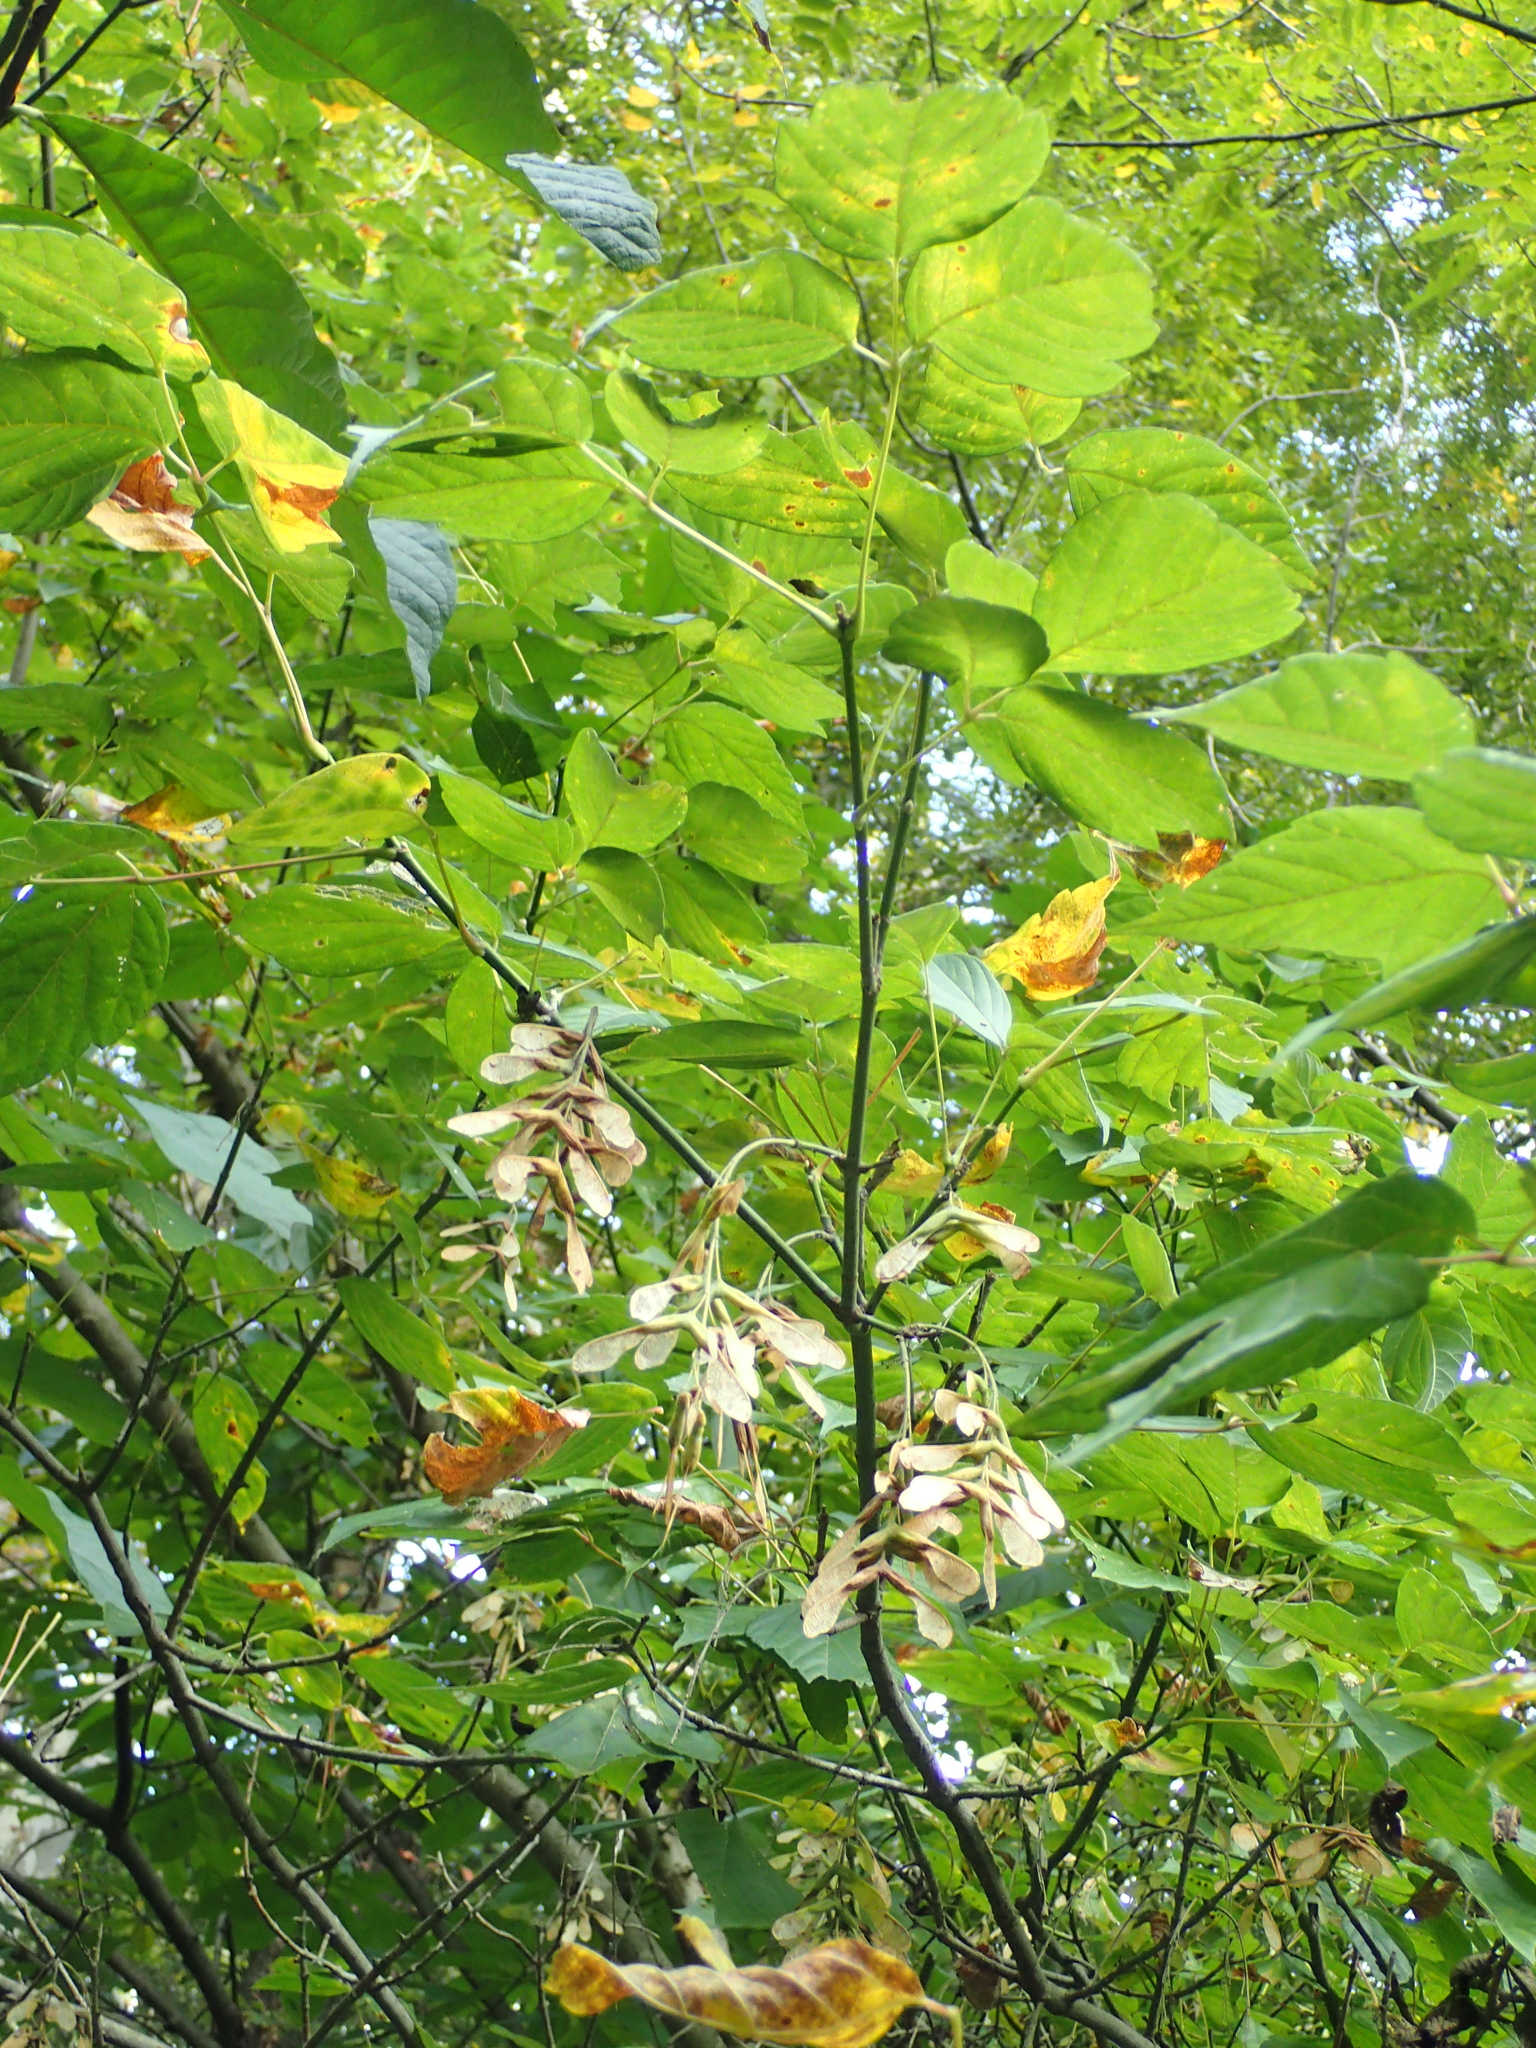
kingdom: Plantae
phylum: Tracheophyta
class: Magnoliopsida
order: Sapindales
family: Sapindaceae
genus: Acer
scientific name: Acer negundo
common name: Ashleaf maple
